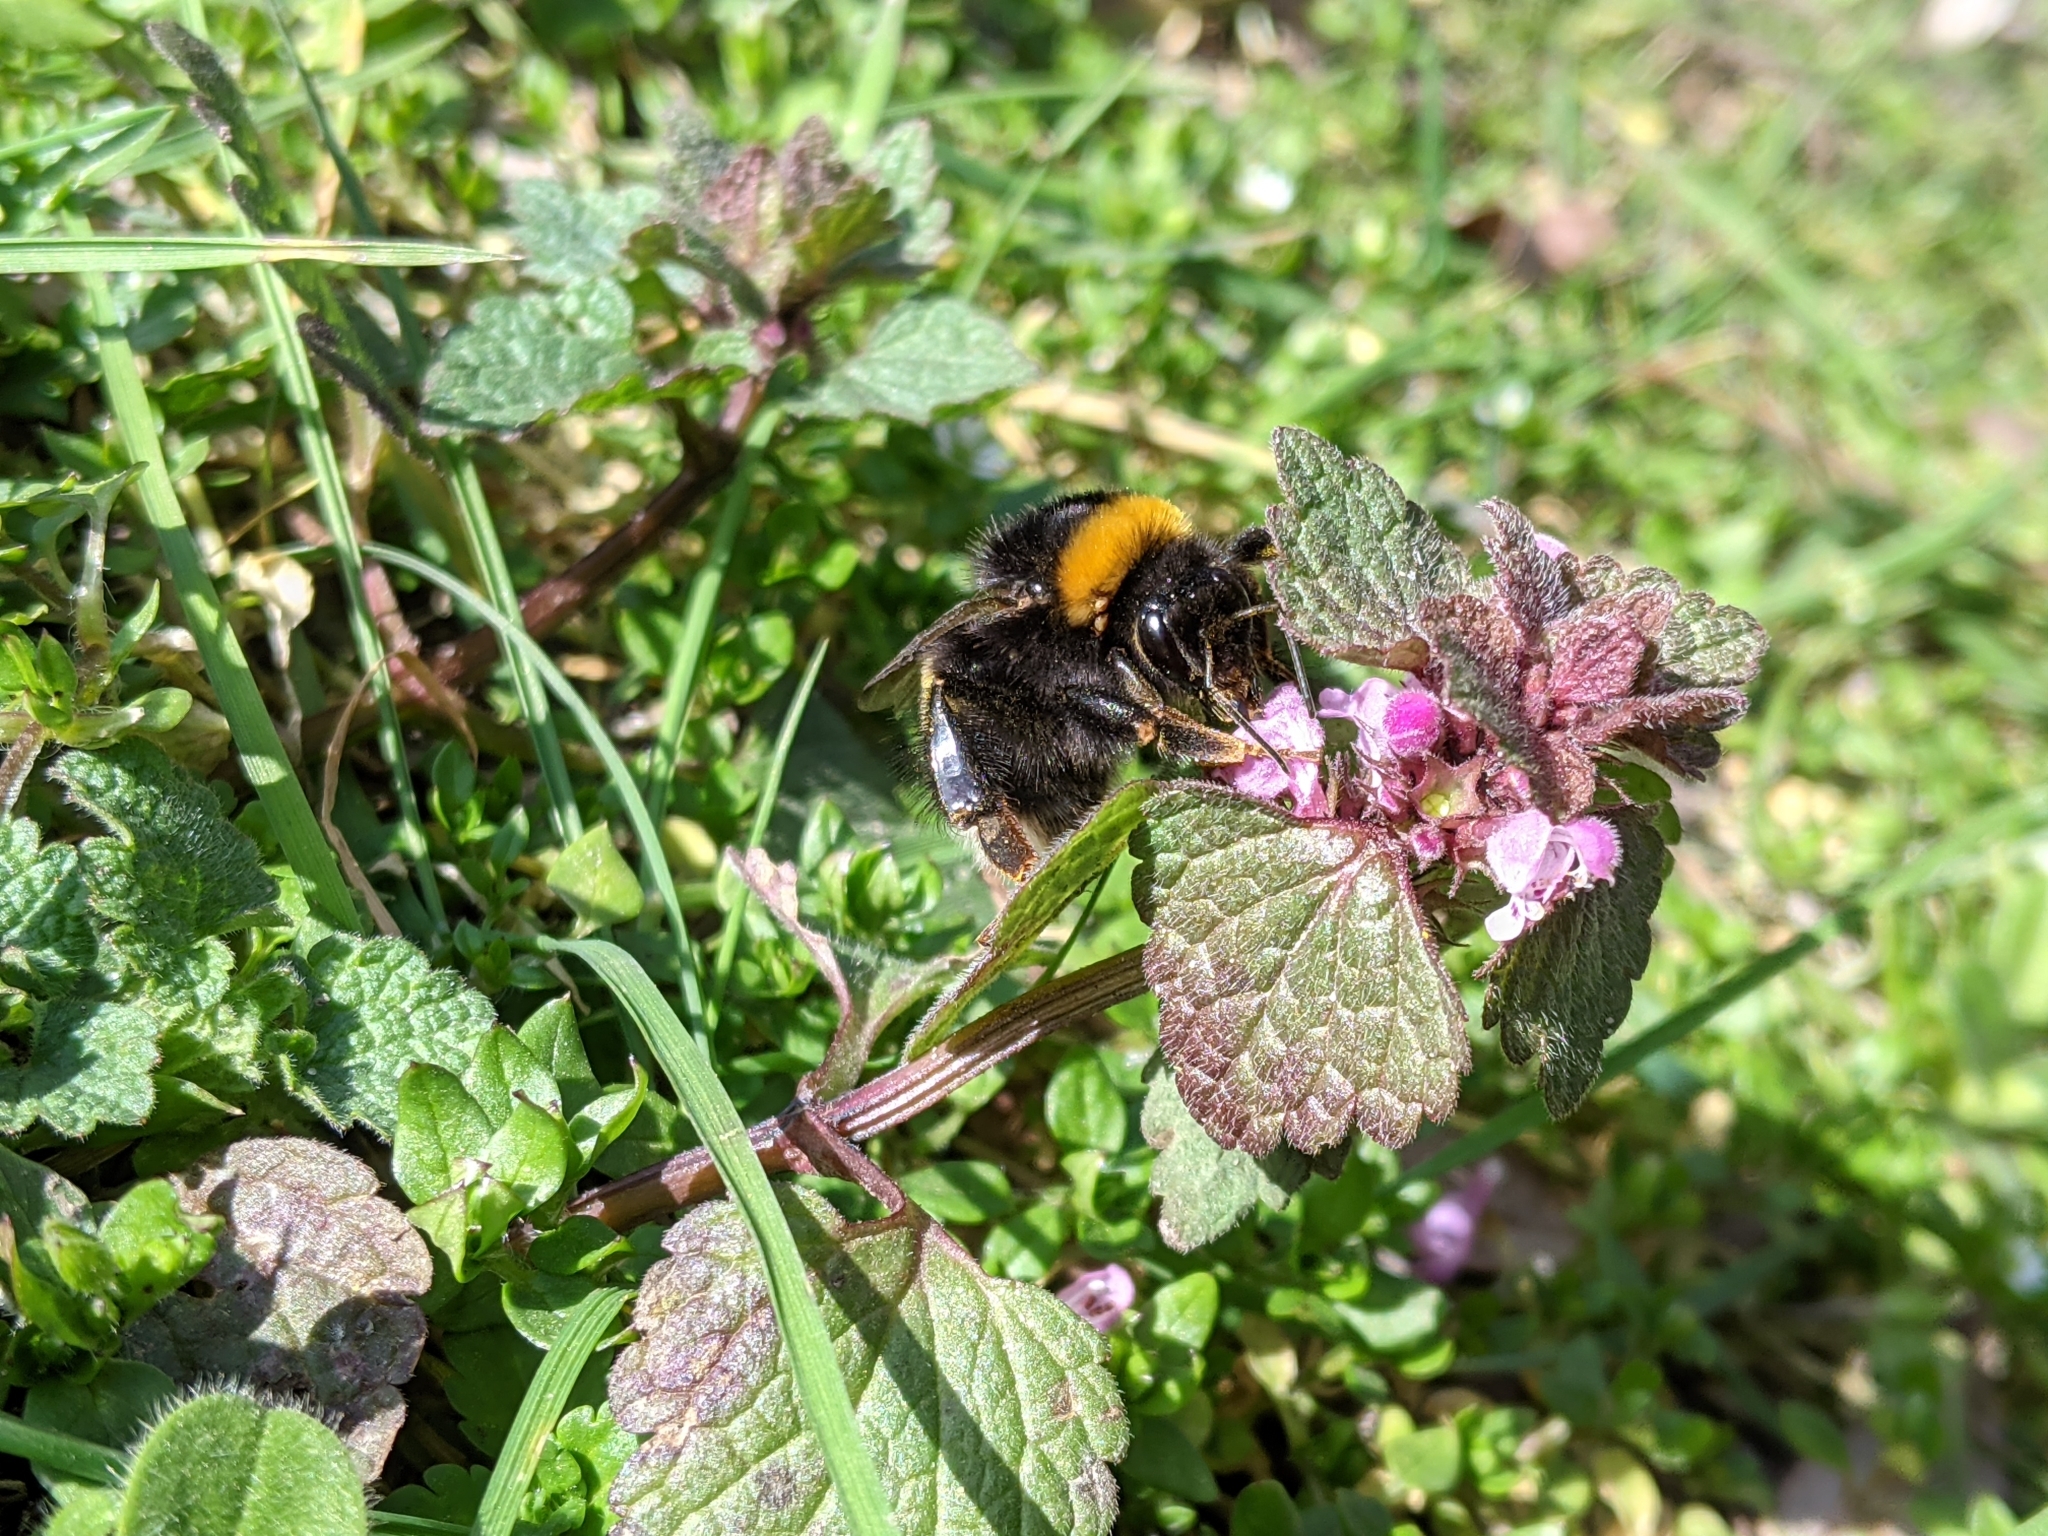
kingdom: Animalia
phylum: Arthropoda
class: Insecta
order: Hymenoptera
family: Apidae
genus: Bombus
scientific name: Bombus
